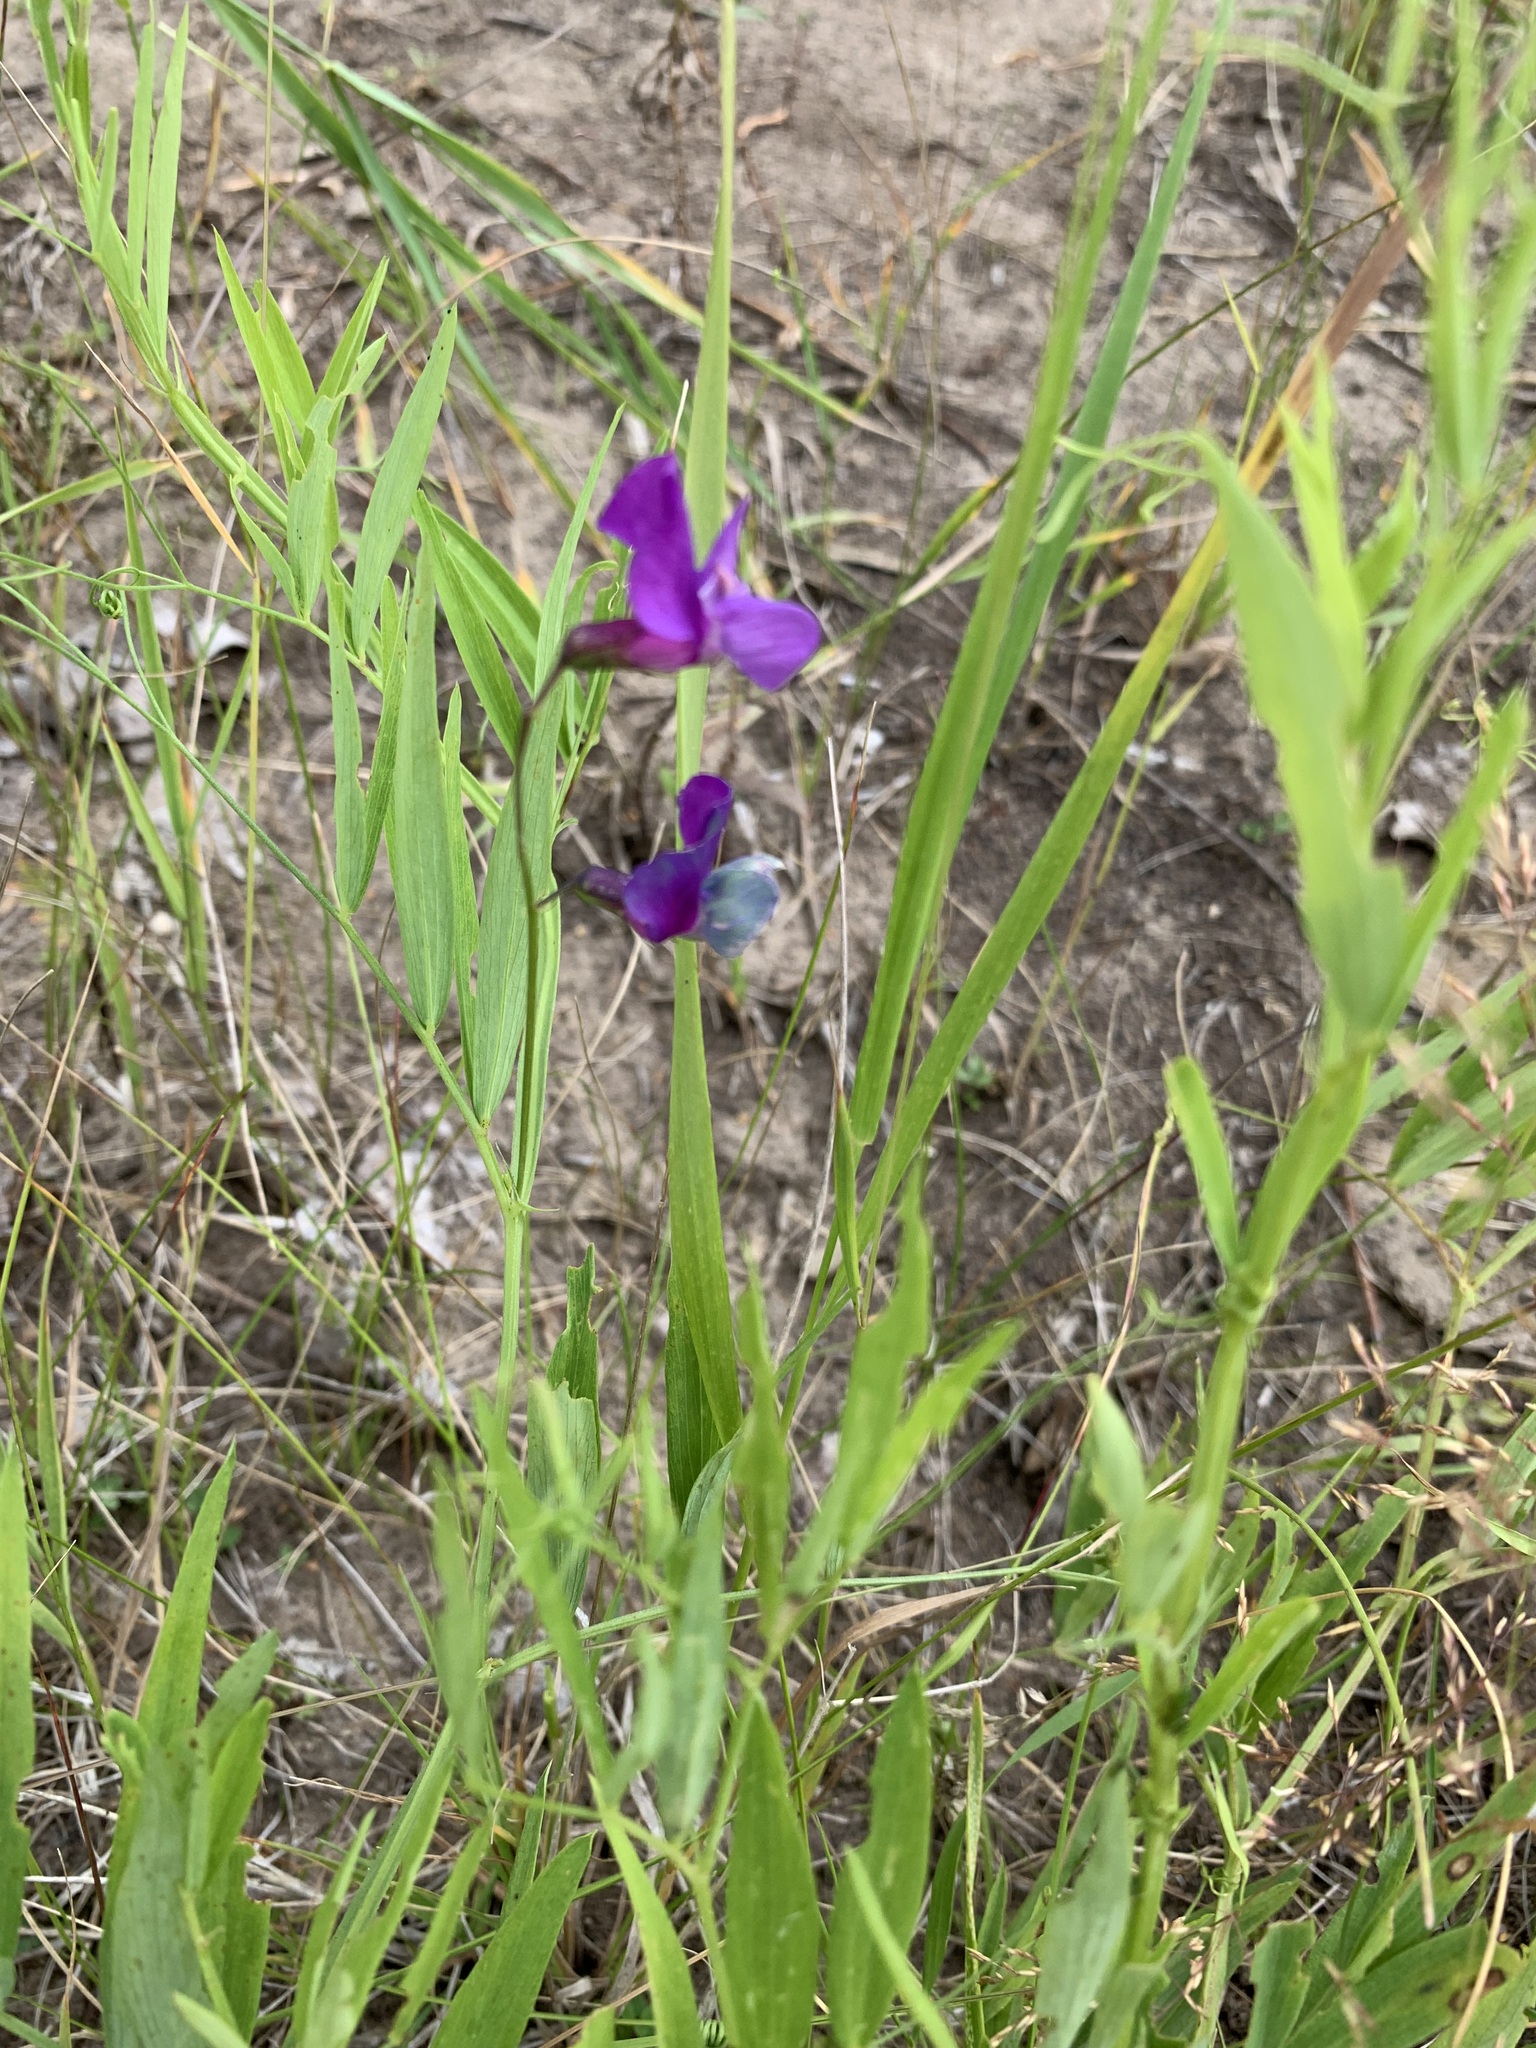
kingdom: Plantae
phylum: Tracheophyta
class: Magnoliopsida
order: Fabales
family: Fabaceae
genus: Lathyrus
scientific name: Lathyrus palustris
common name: Marsh pea
